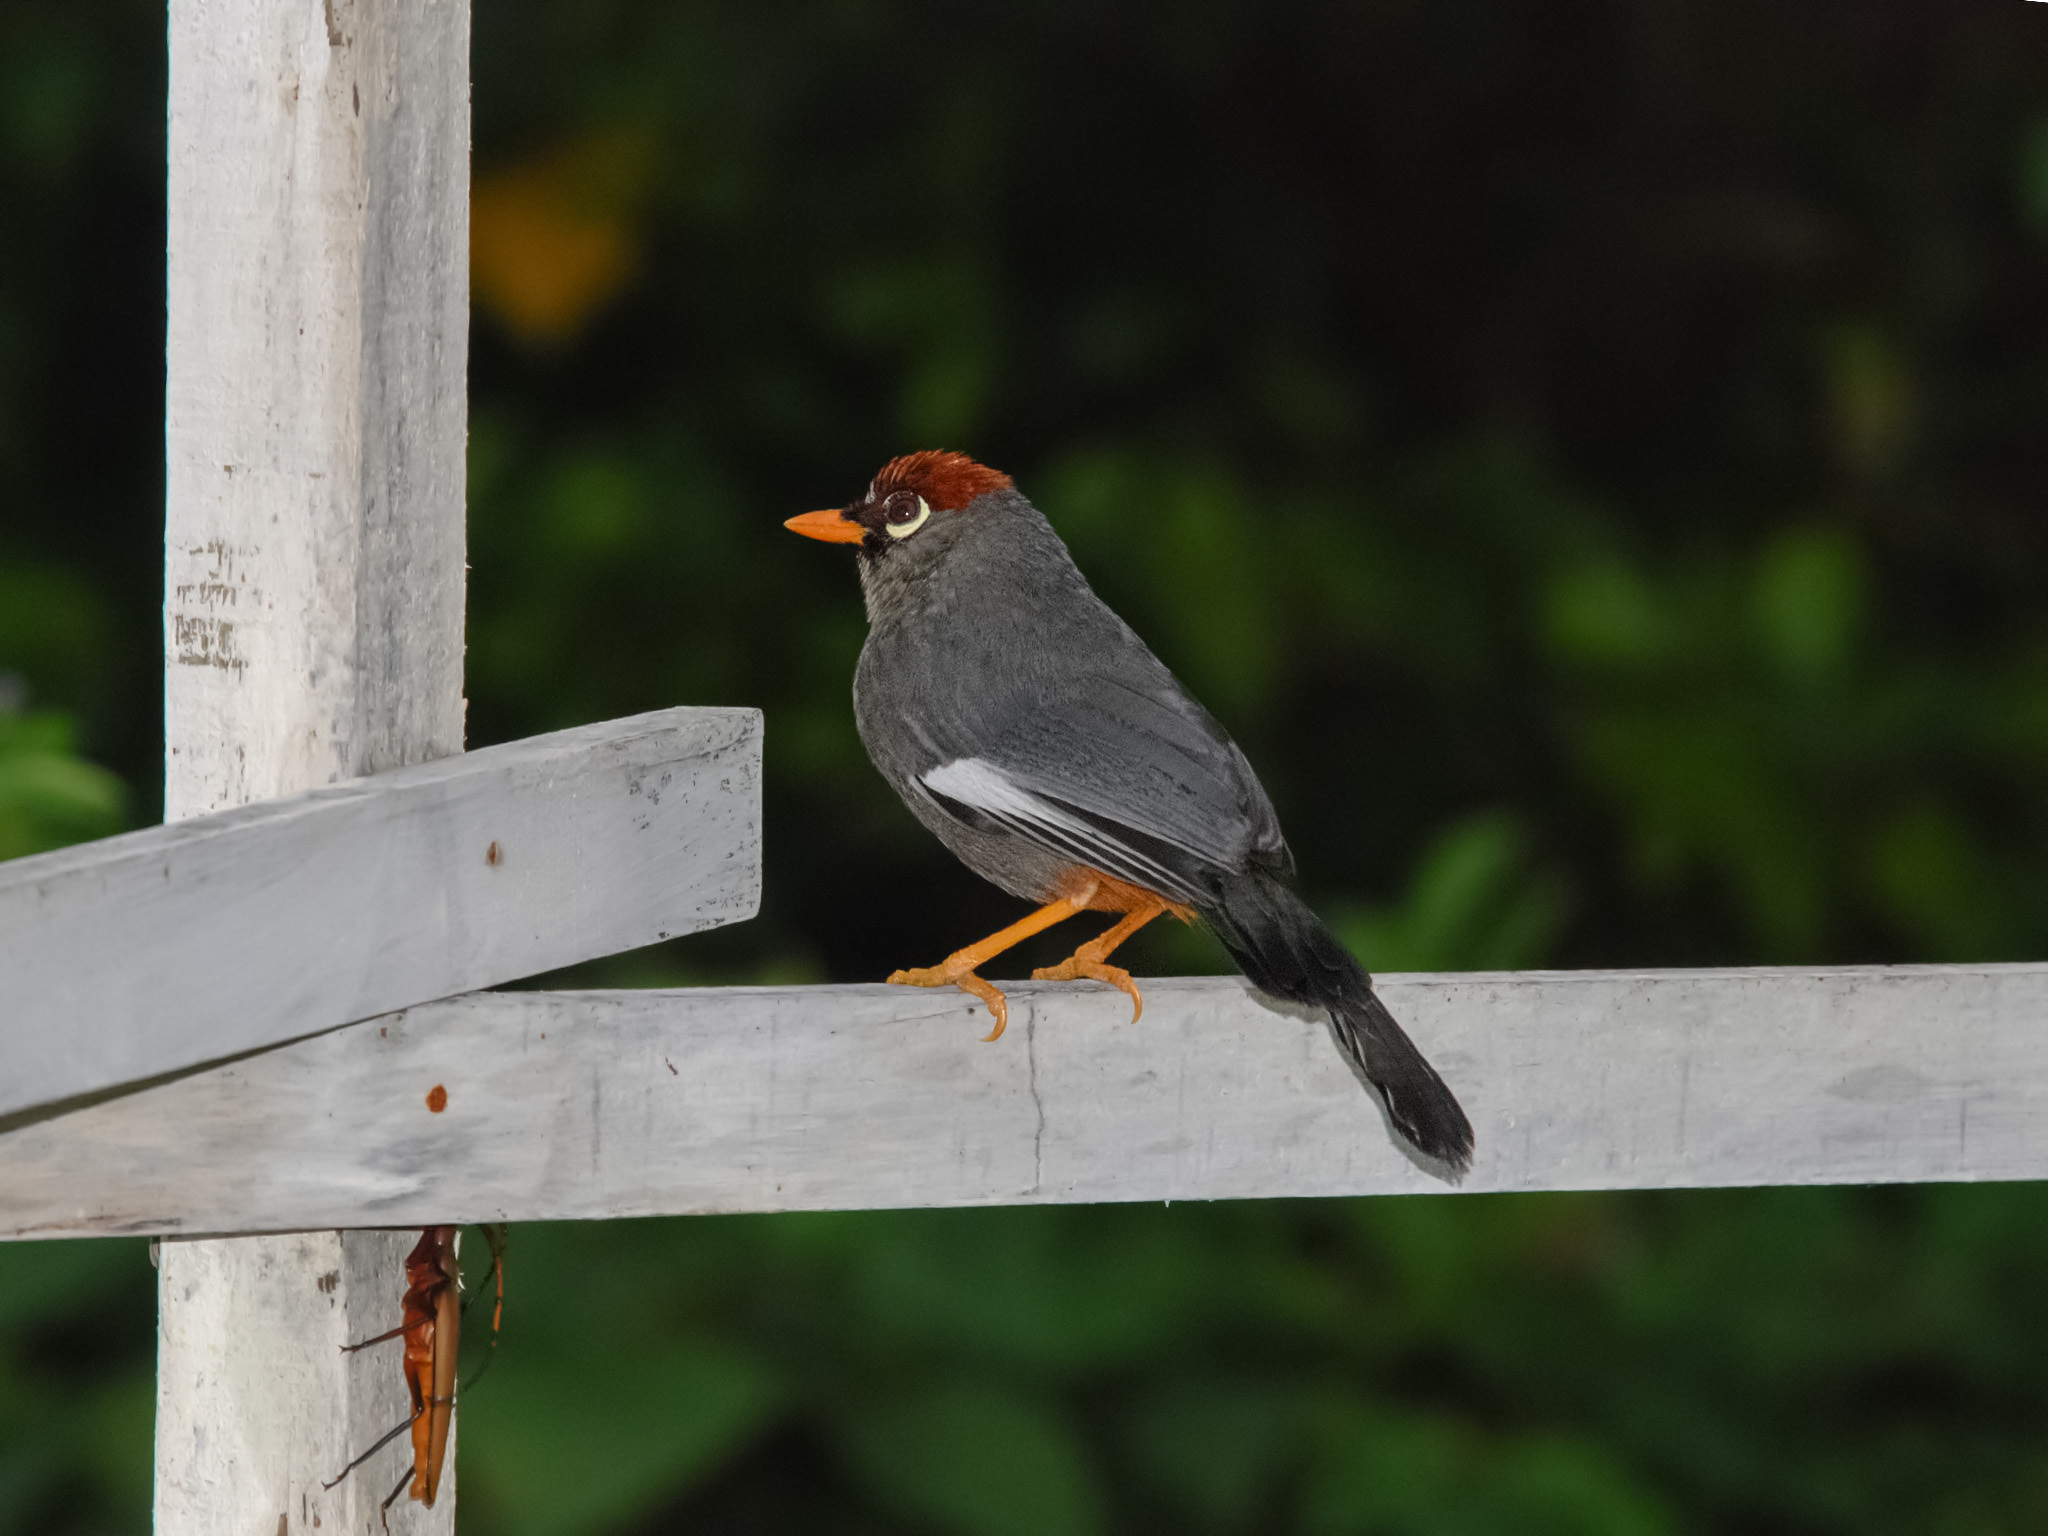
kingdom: Animalia
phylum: Chordata
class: Aves
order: Passeriformes
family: Leiothrichidae
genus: Garrulax
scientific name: Garrulax mitratus
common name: Chestnut-capped laughingthrush
